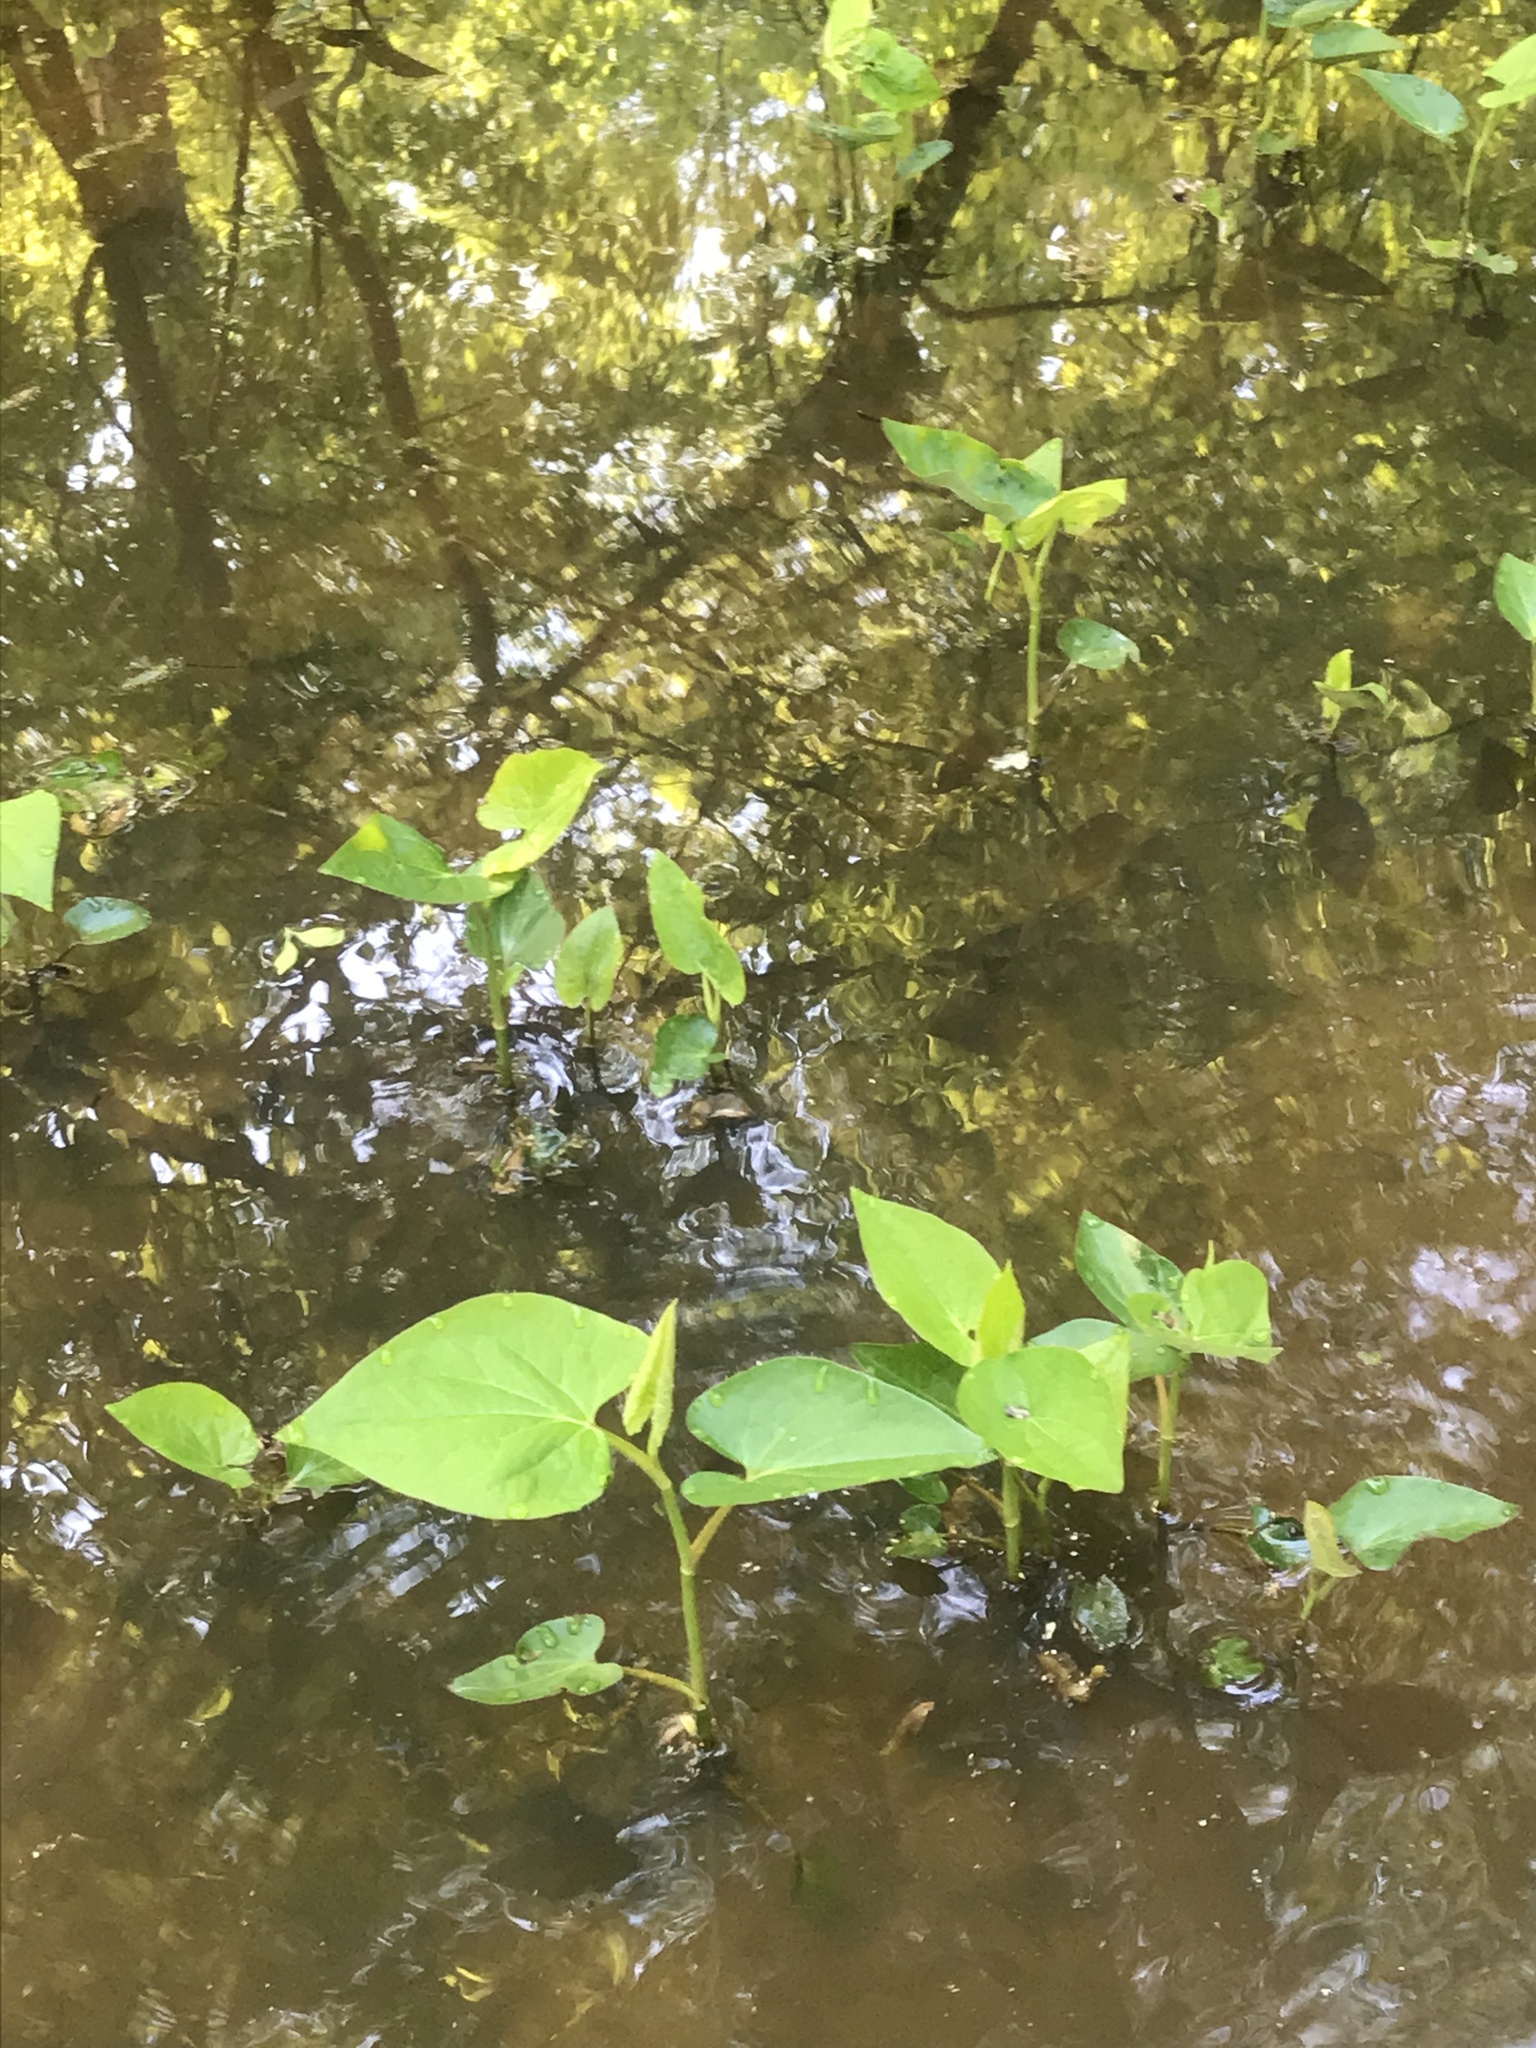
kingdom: Plantae
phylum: Tracheophyta
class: Magnoliopsida
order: Piperales
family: Saururaceae
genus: Saururus
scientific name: Saururus cernuus
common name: Lizard's-tail
